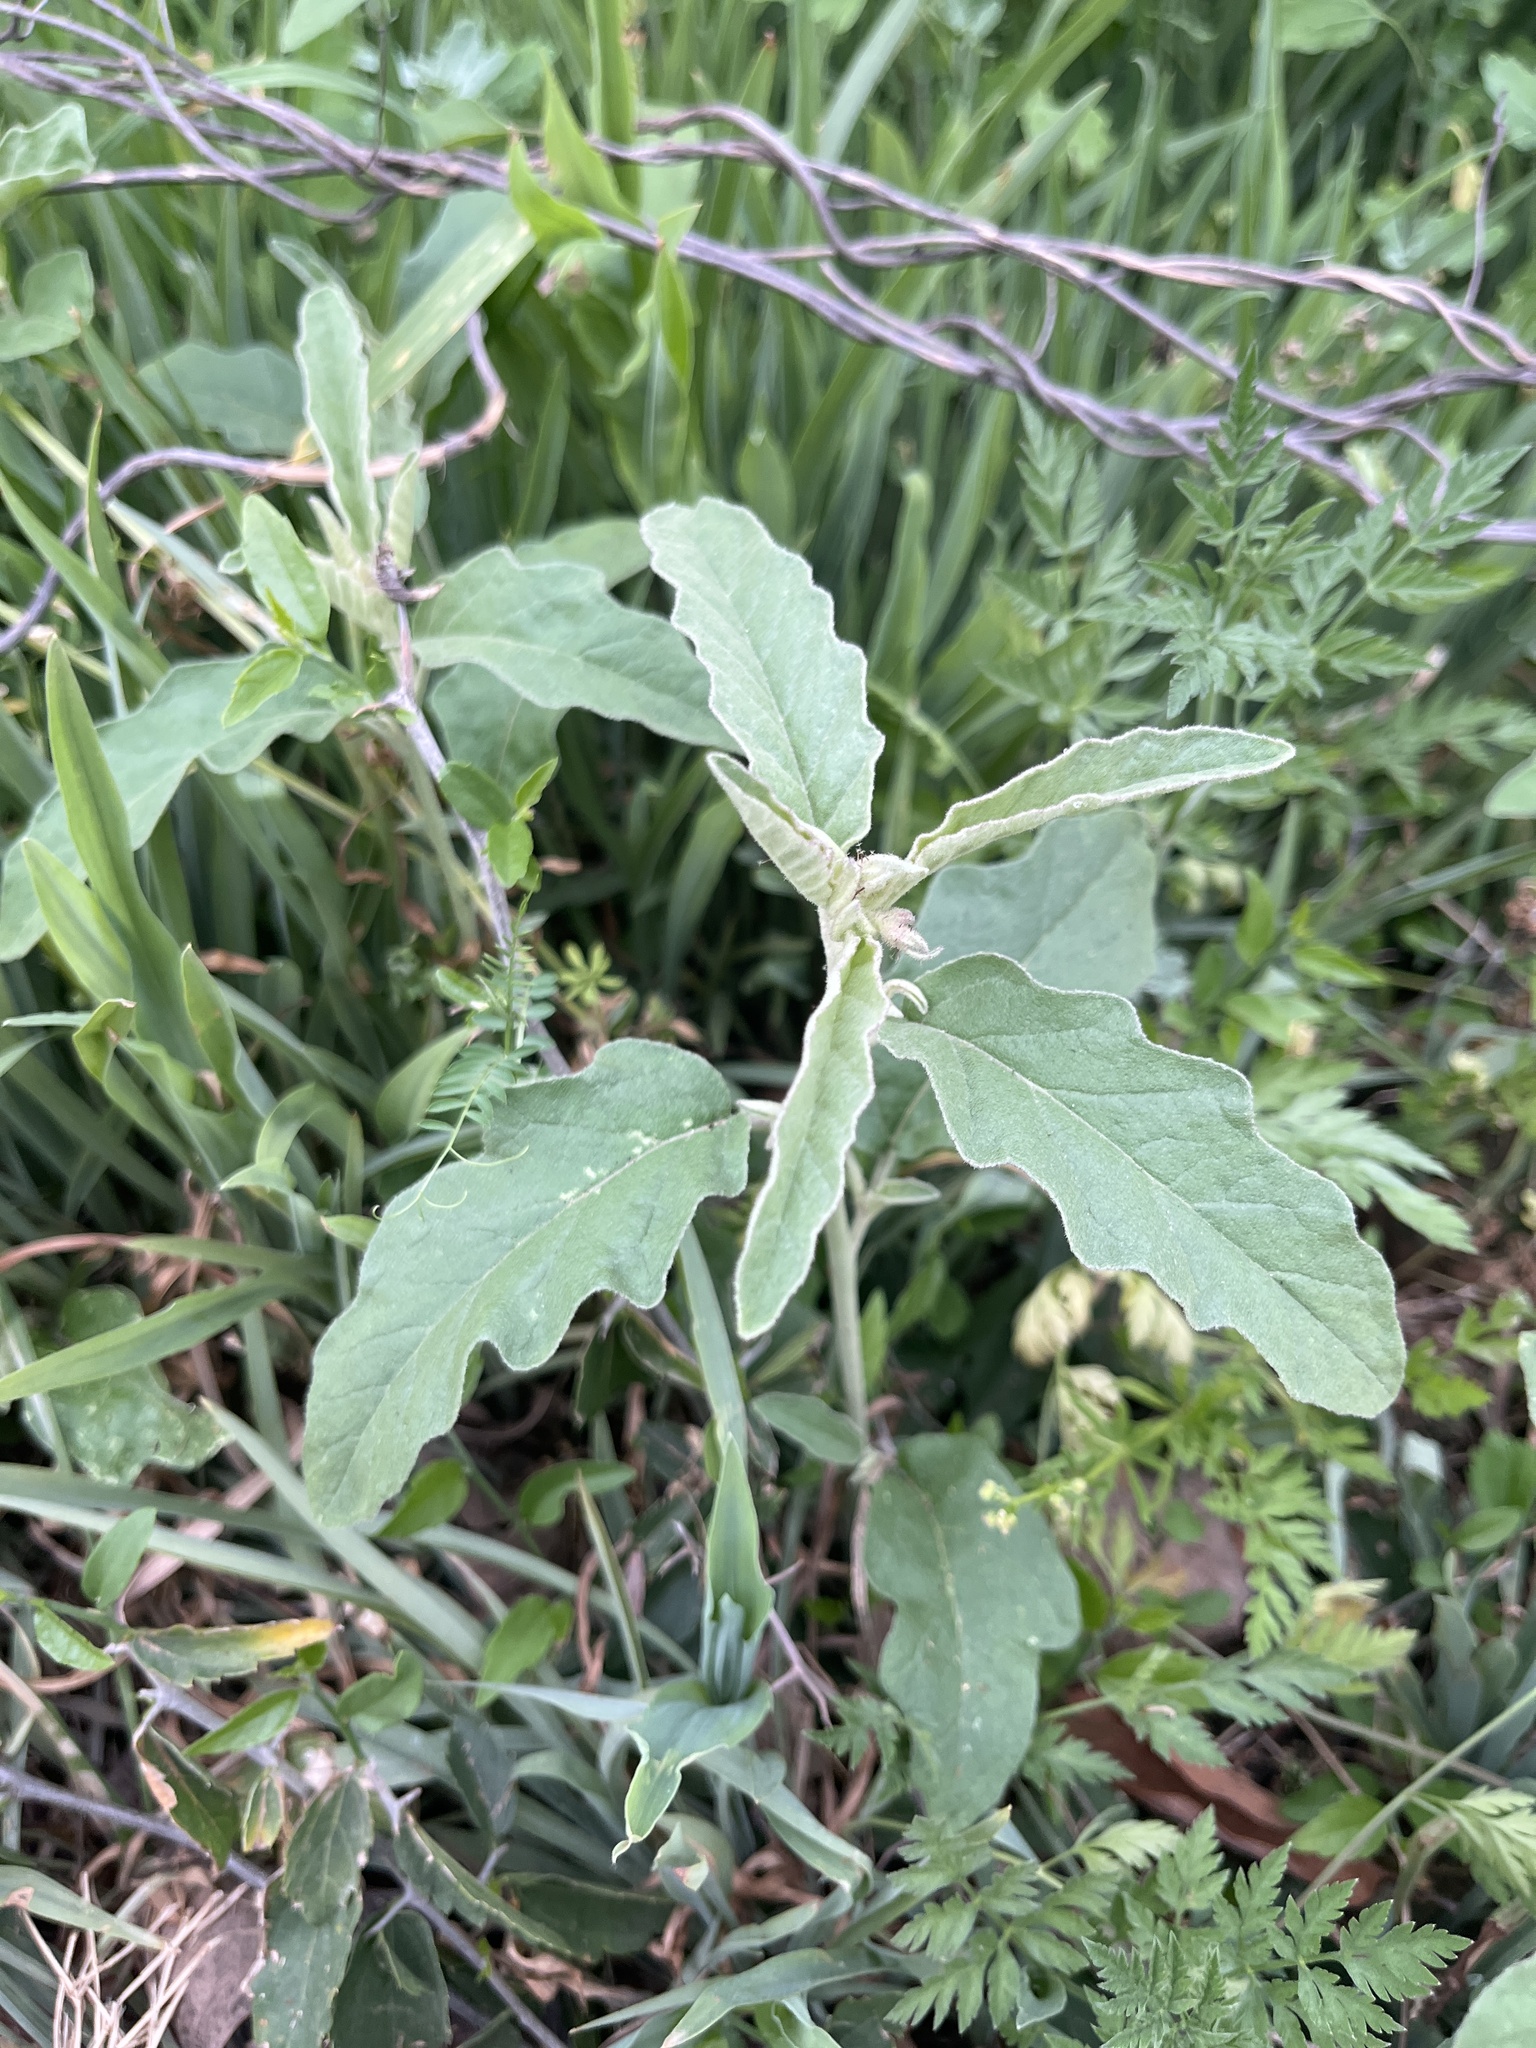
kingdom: Plantae
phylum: Tracheophyta
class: Magnoliopsida
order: Solanales
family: Solanaceae
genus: Solanum
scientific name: Solanum elaeagnifolium
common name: Silverleaf nightshade
